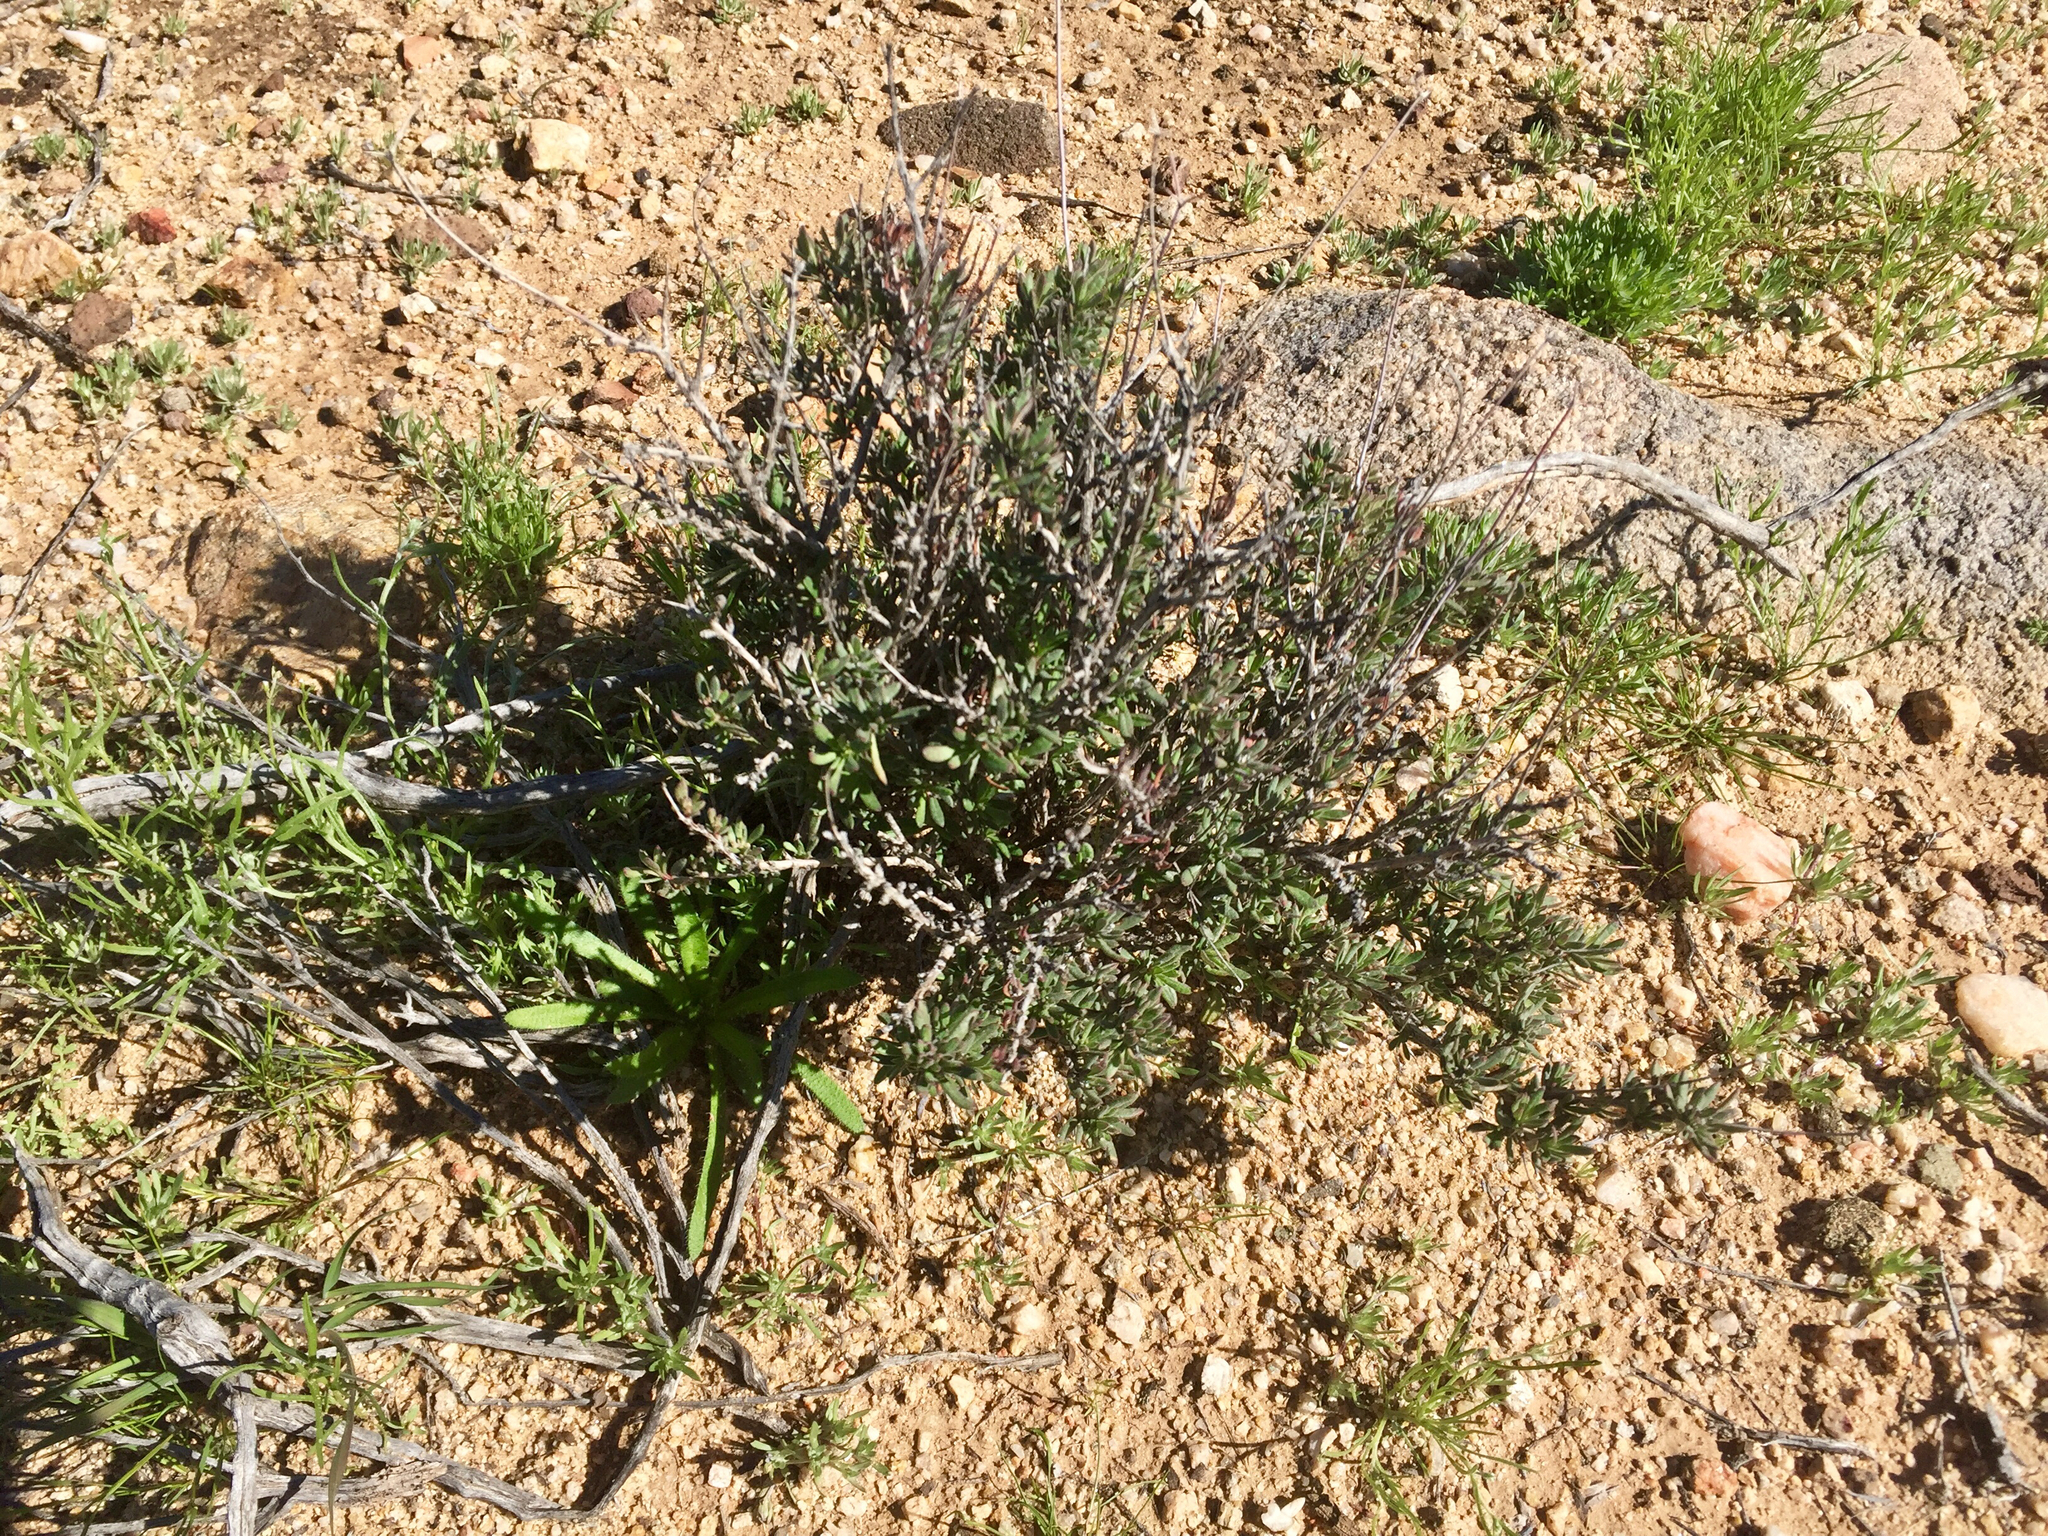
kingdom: Plantae
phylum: Tracheophyta
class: Magnoliopsida
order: Caryophyllales
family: Polygonaceae
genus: Eriogonum
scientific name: Eriogonum fasciculatum
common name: California wild buckwheat
